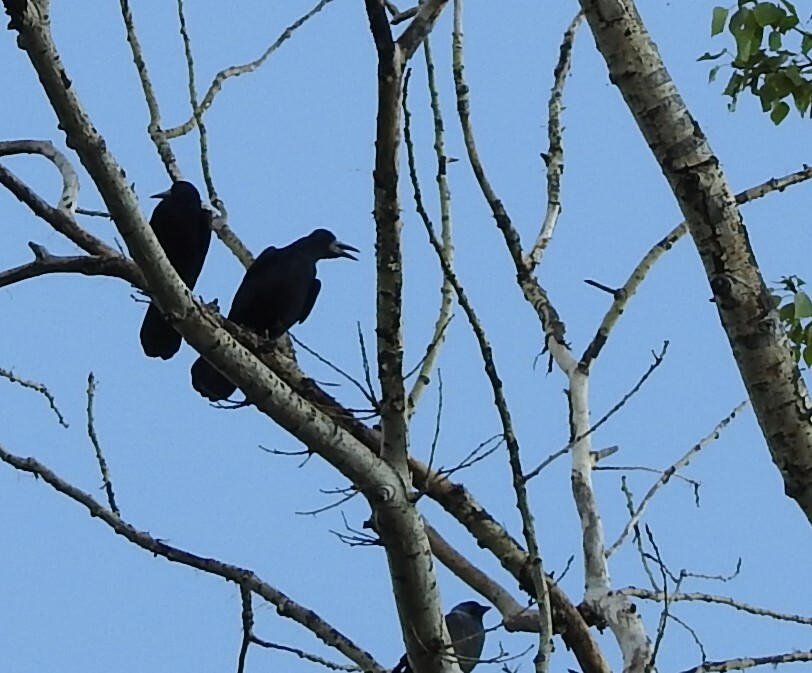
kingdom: Animalia
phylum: Chordata
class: Aves
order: Passeriformes
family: Corvidae
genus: Corvus
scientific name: Corvus frugilegus
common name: Rook
